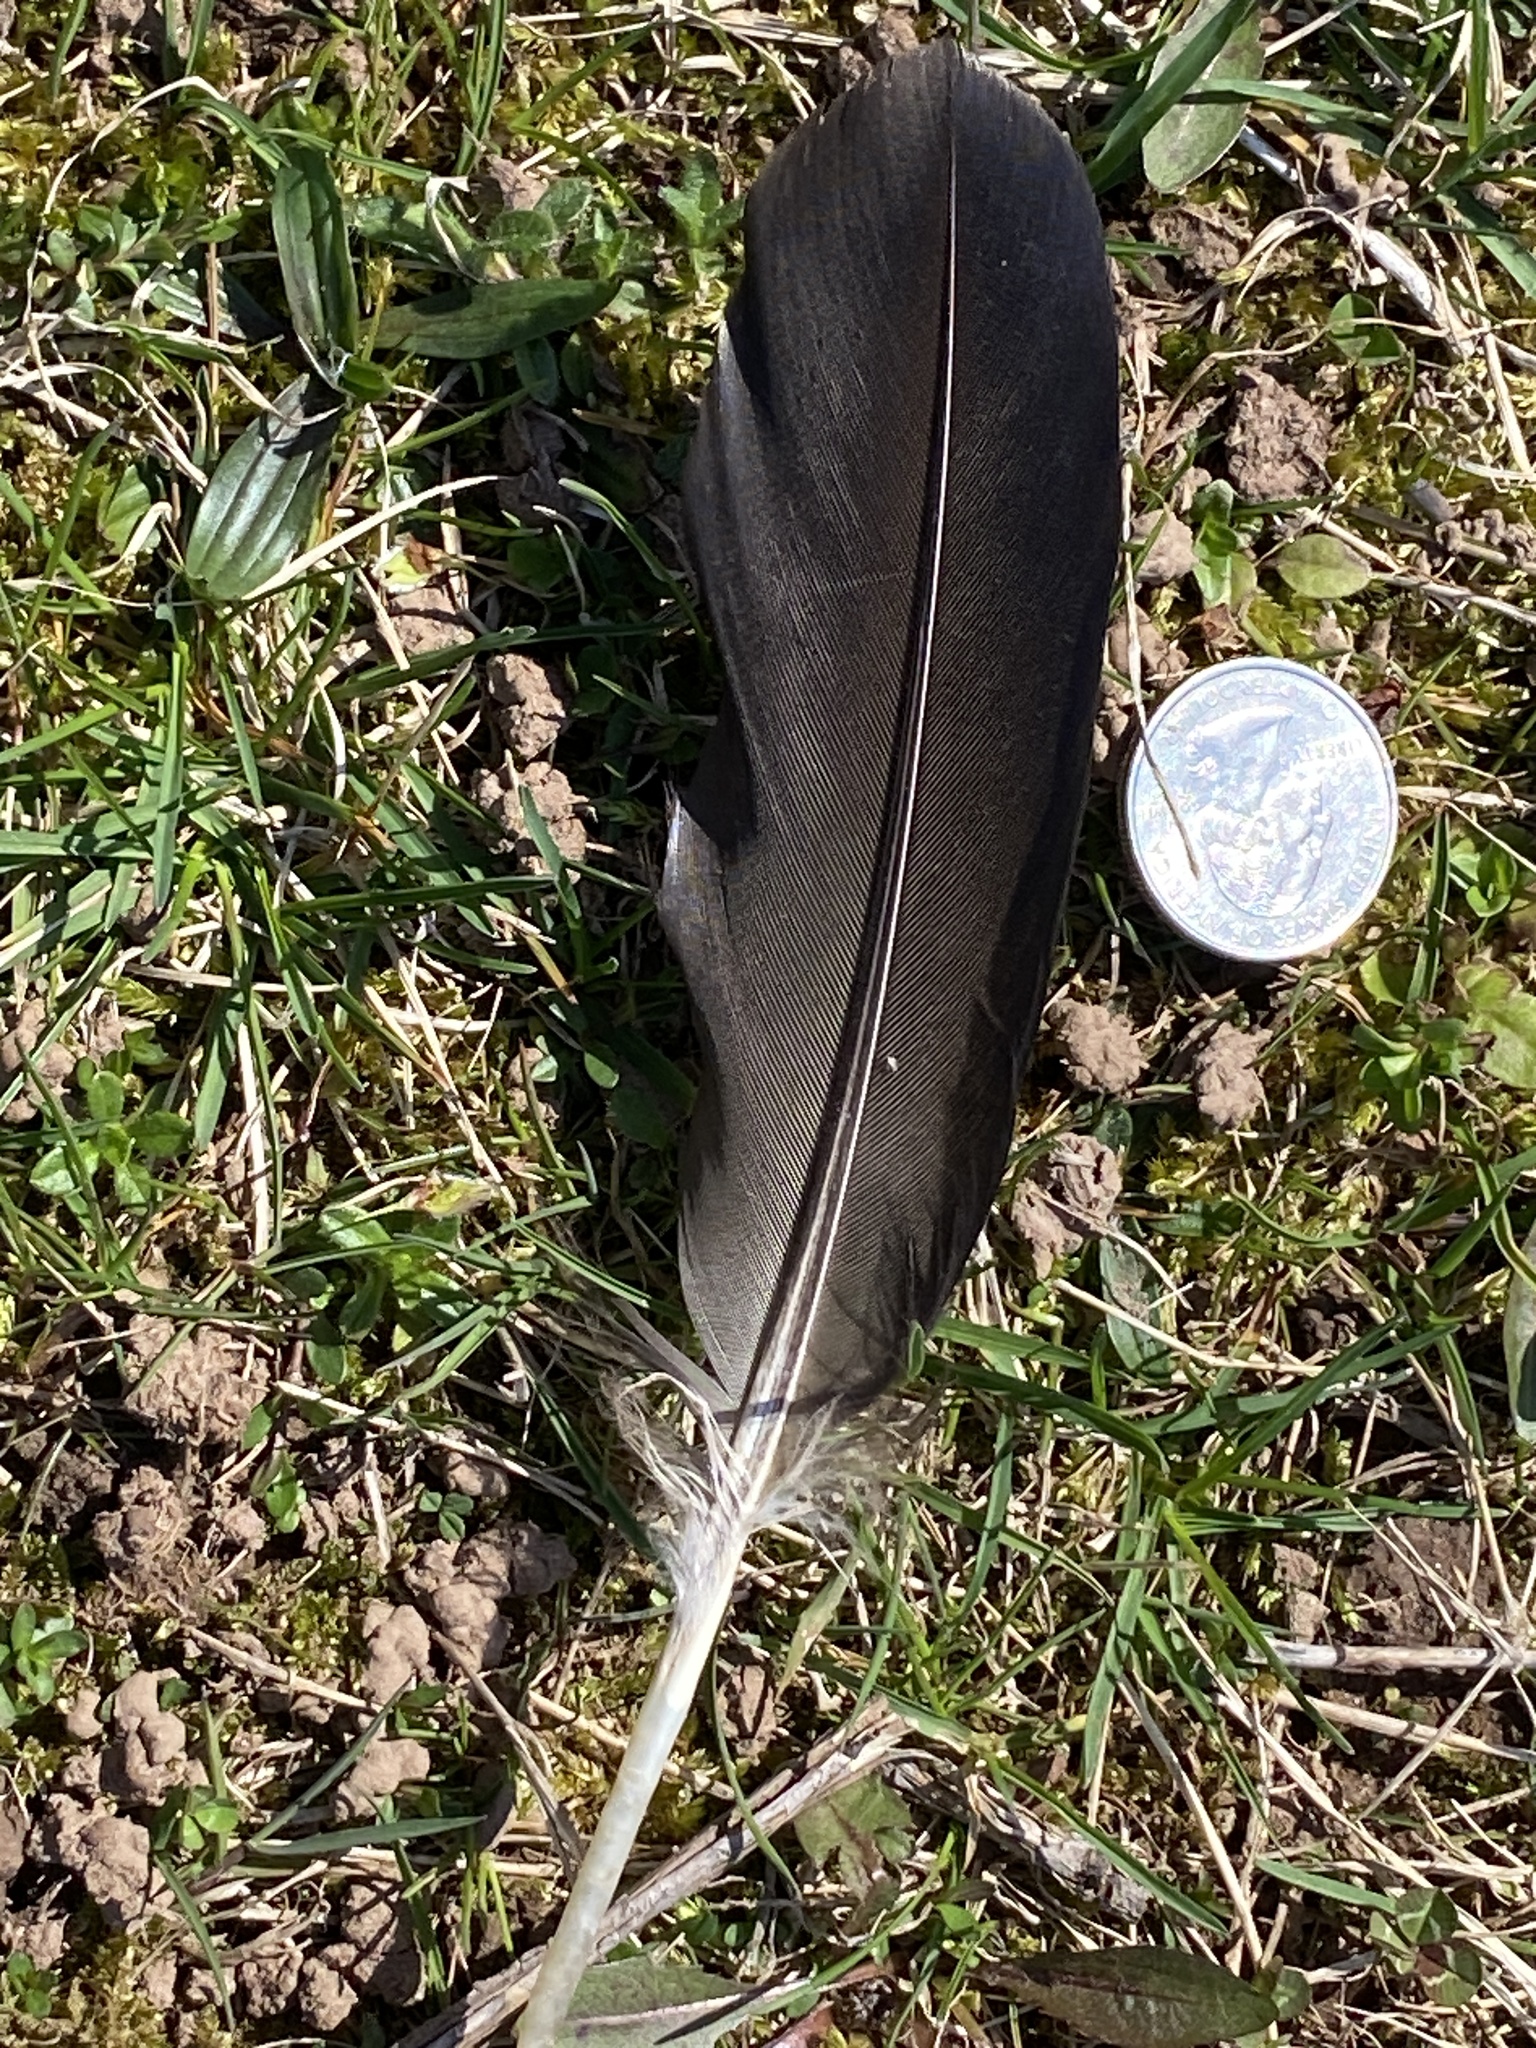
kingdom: Animalia
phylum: Chordata
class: Aves
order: Anseriformes
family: Anatidae
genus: Branta
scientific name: Branta canadensis
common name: Canada goose
